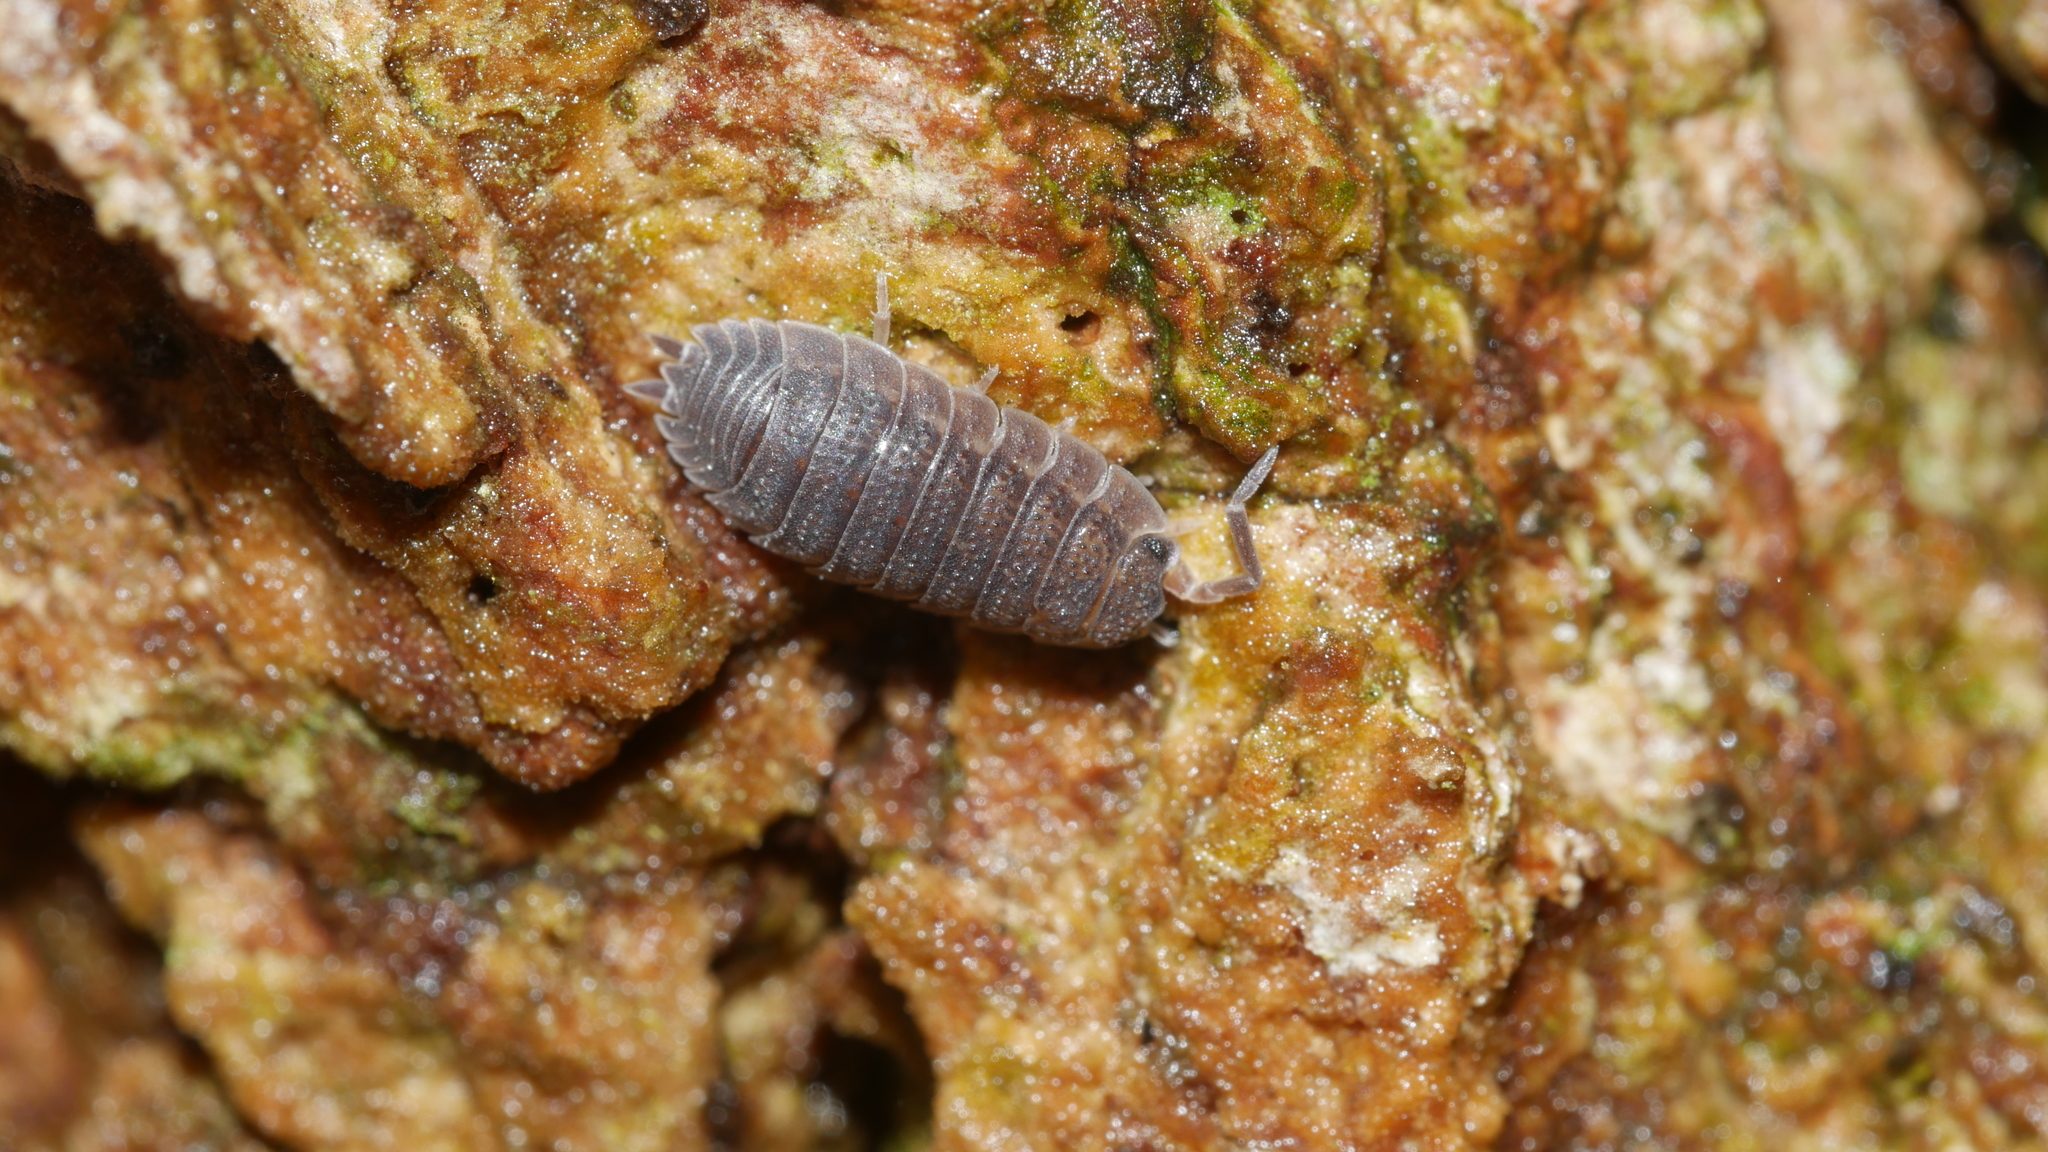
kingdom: Animalia
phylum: Arthropoda
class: Malacostraca
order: Isopoda
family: Porcellionidae
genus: Porcellio
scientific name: Porcellio scaber
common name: Common rough woodlouse
